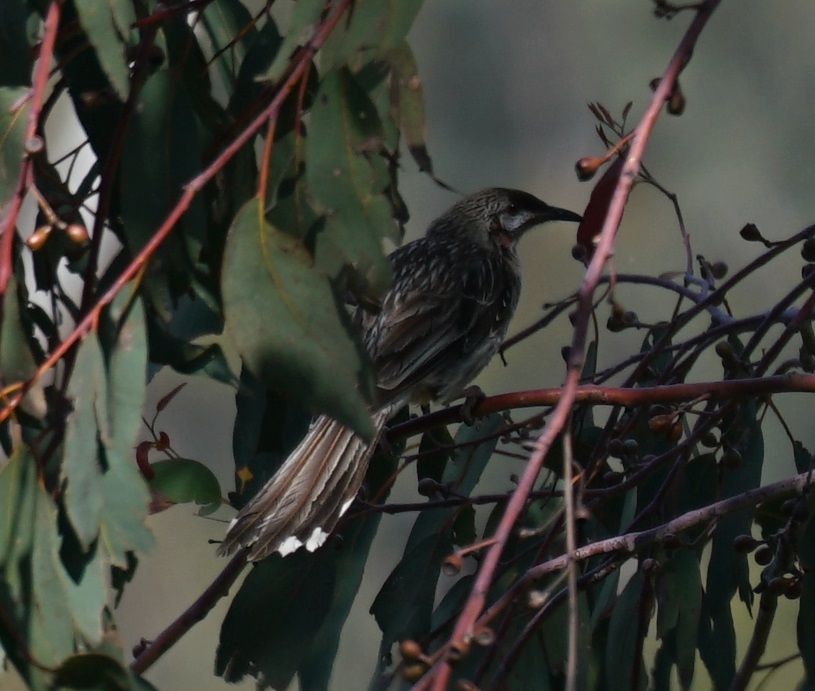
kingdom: Animalia
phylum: Chordata
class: Aves
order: Passeriformes
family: Meliphagidae
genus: Anthochaera
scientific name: Anthochaera carunculata
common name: Red wattlebird
